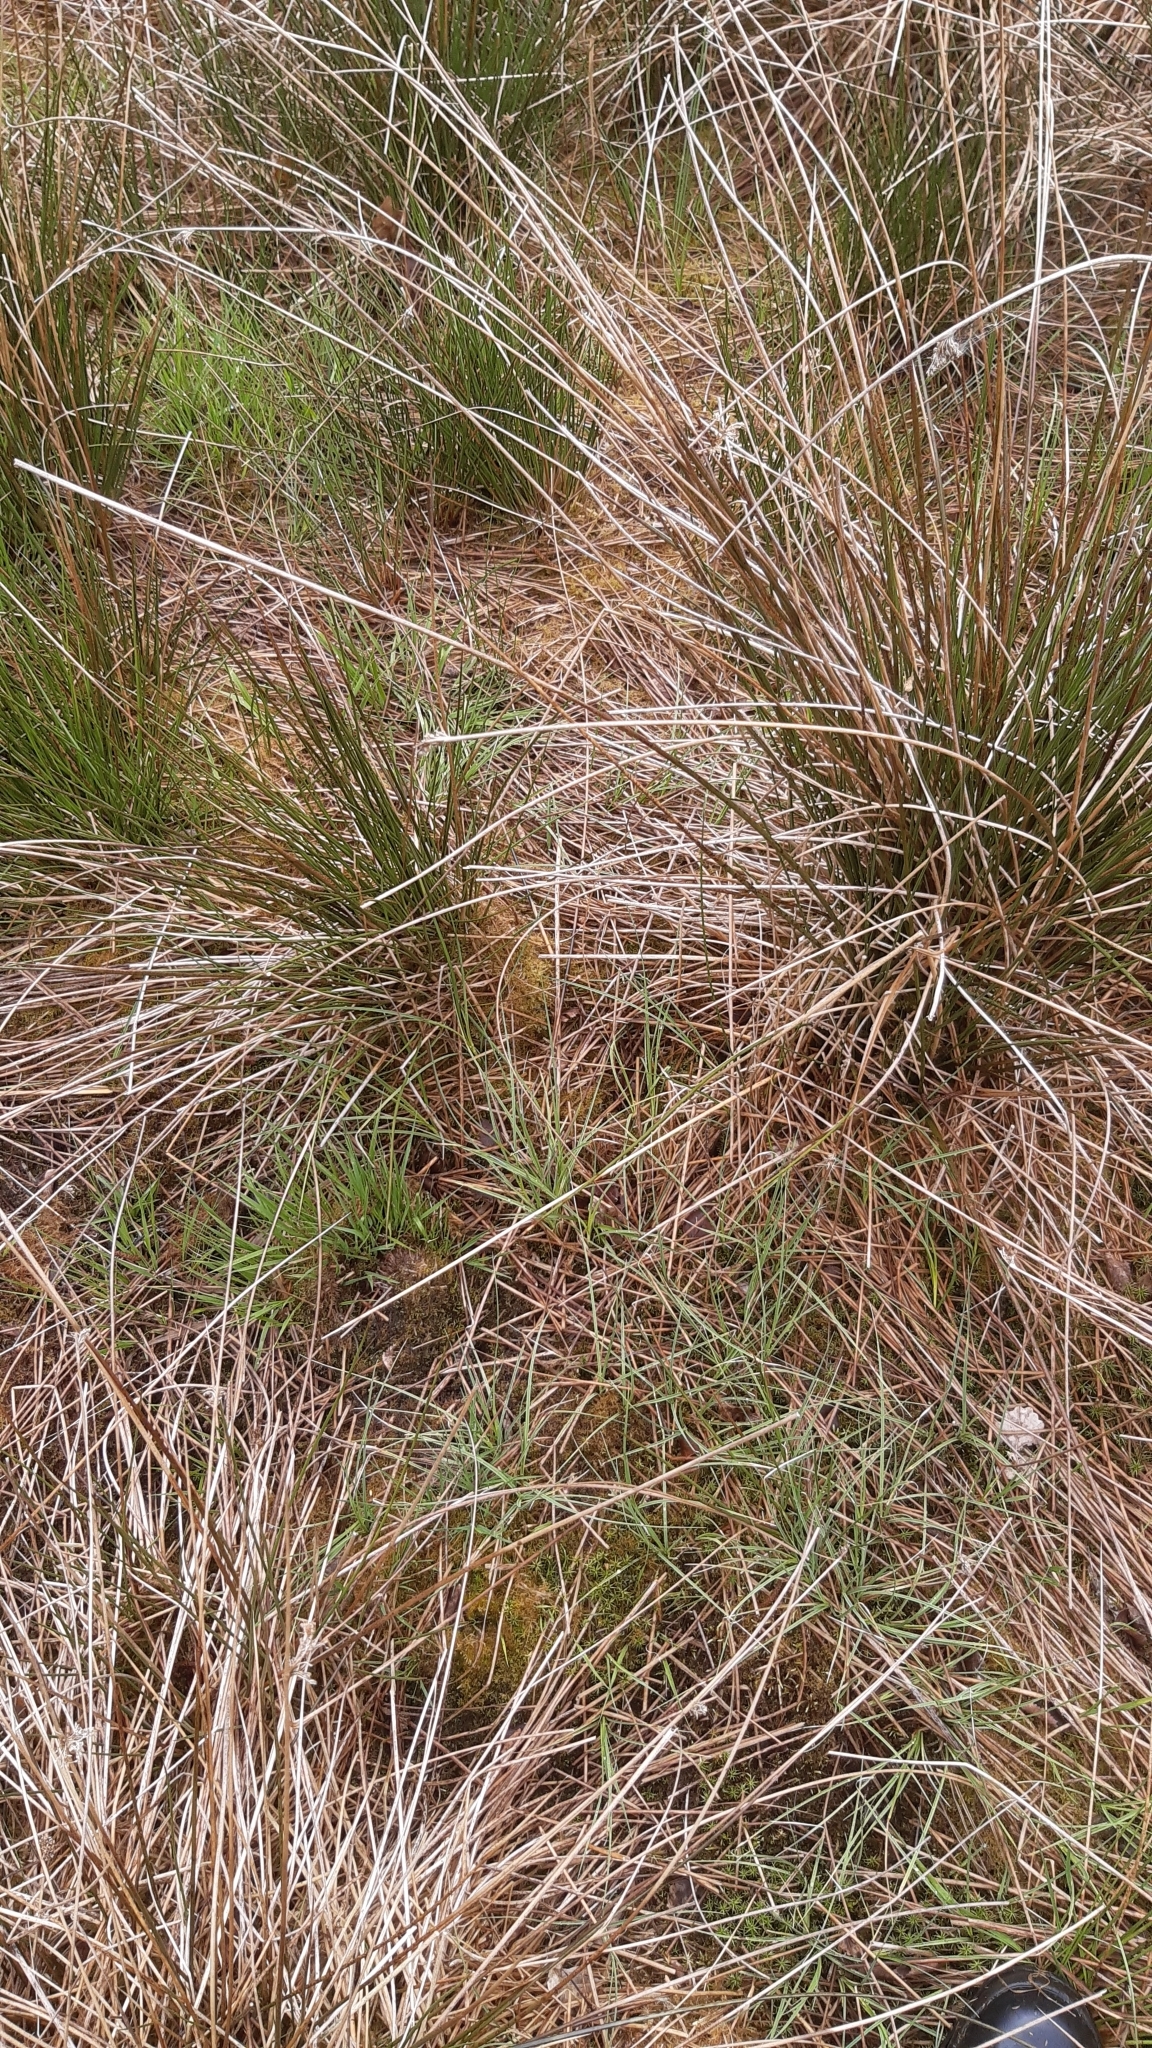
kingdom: Plantae
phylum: Tracheophyta
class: Liliopsida
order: Poales
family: Juncaceae
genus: Juncus
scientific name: Juncus effusus
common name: Soft rush
